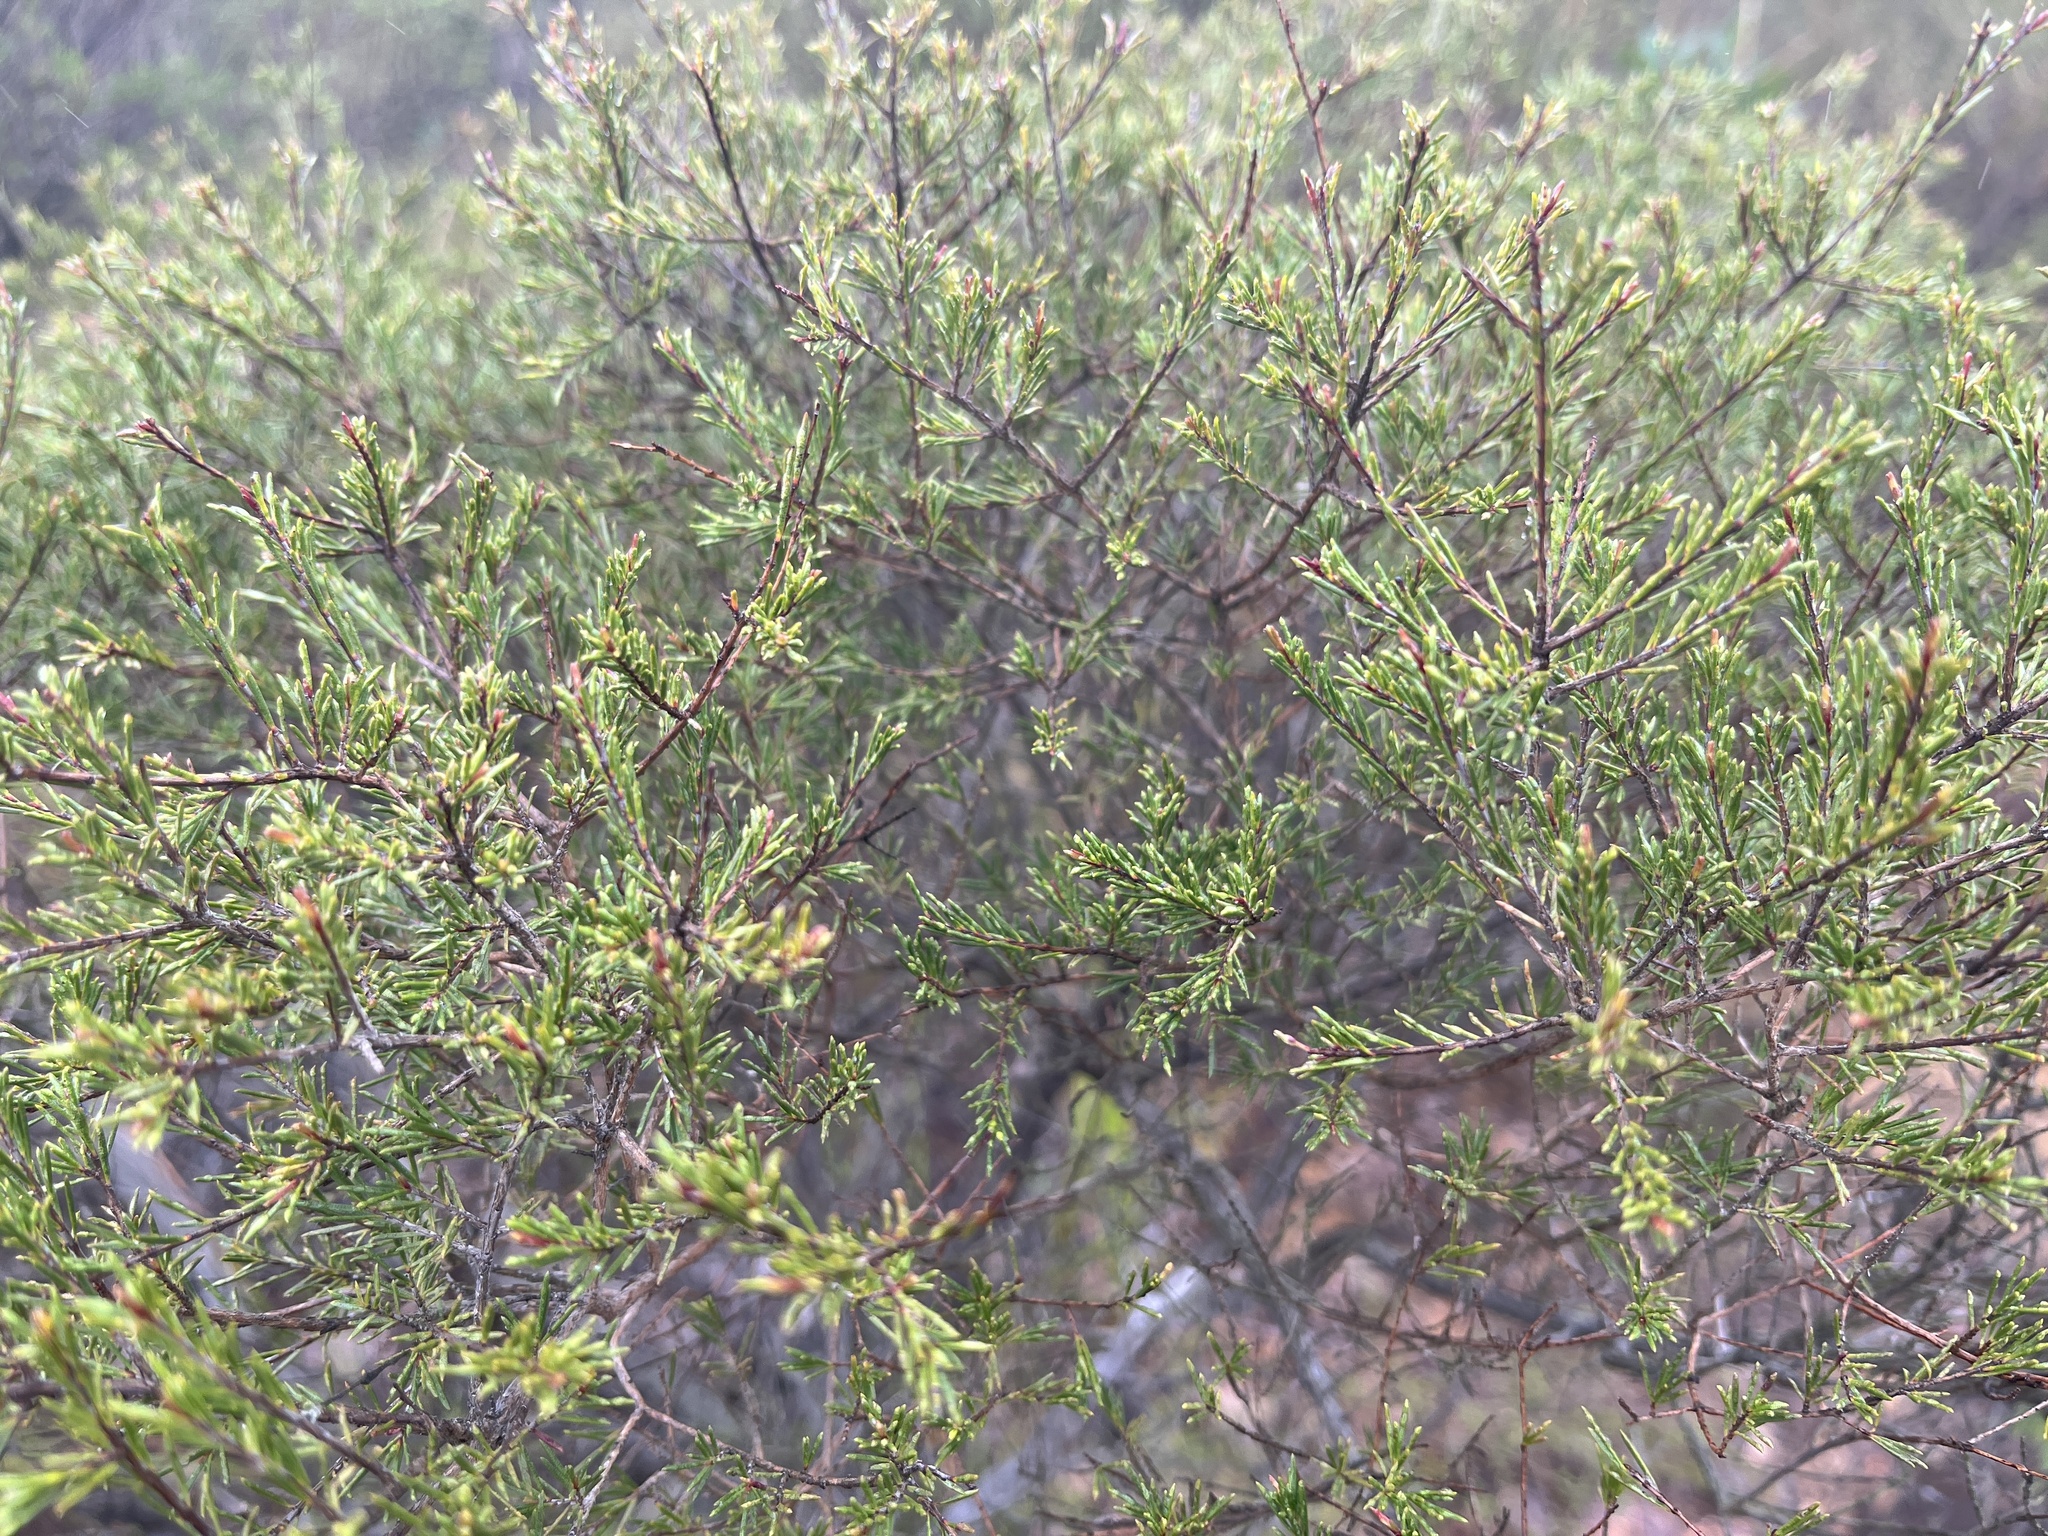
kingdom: Plantae
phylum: Tracheophyta
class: Magnoliopsida
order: Myrtales
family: Myrtaceae
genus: Baeckea
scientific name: Baeckea frutescens
